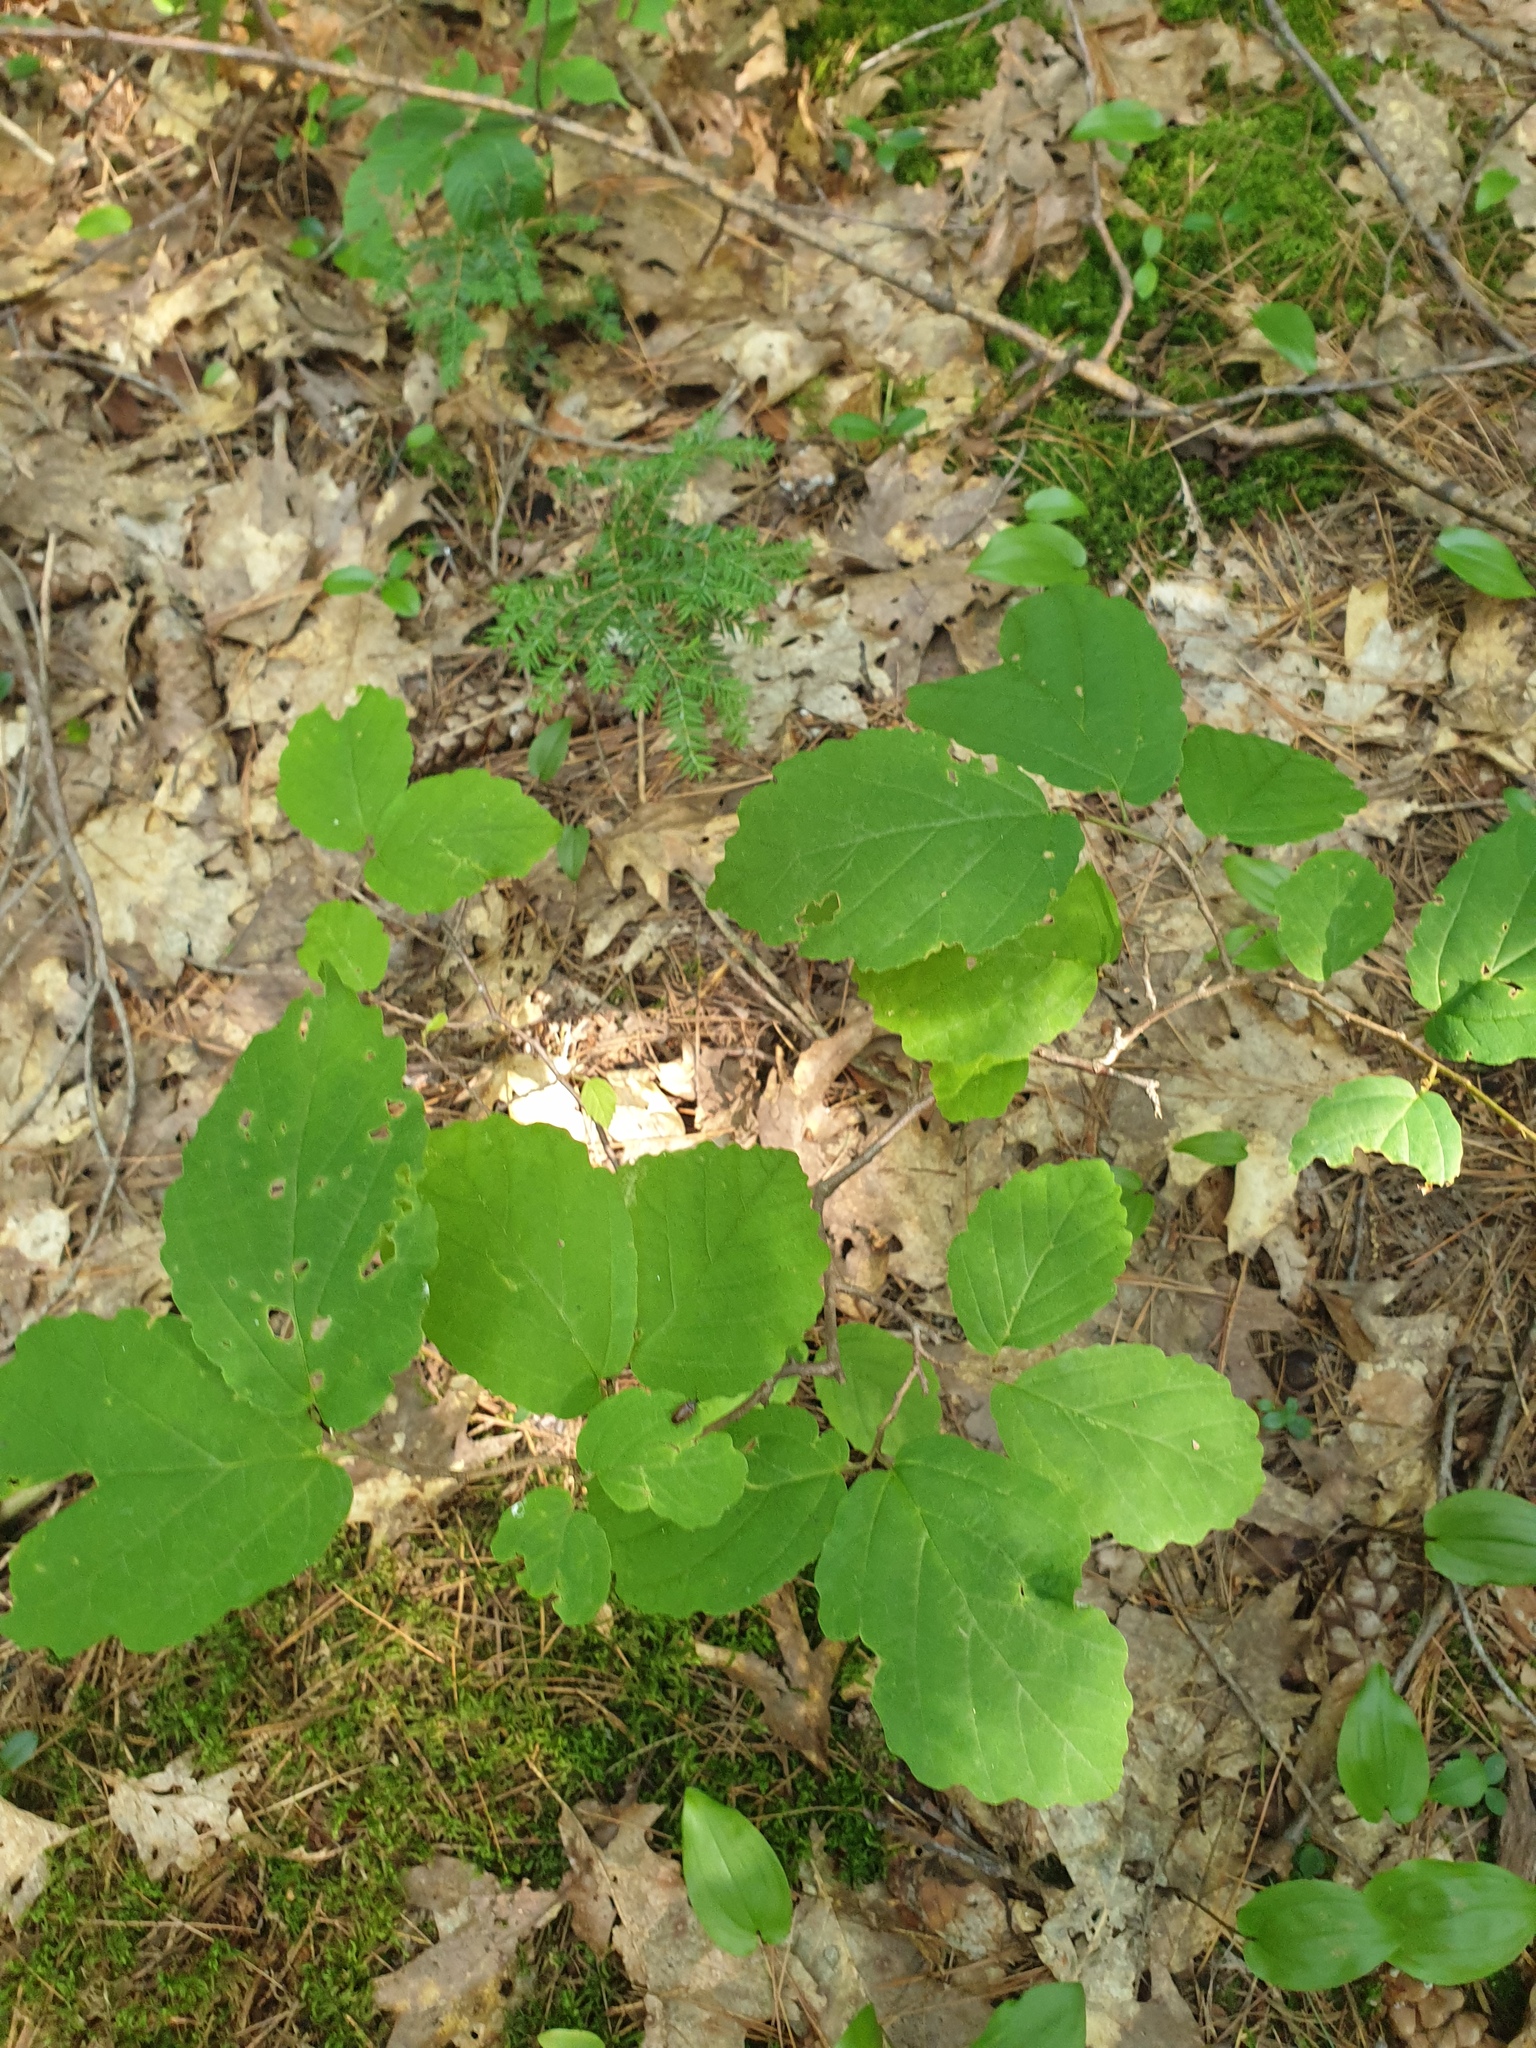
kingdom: Plantae
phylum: Tracheophyta
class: Magnoliopsida
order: Saxifragales
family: Hamamelidaceae
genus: Hamamelis
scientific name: Hamamelis virginiana
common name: Witch-hazel
